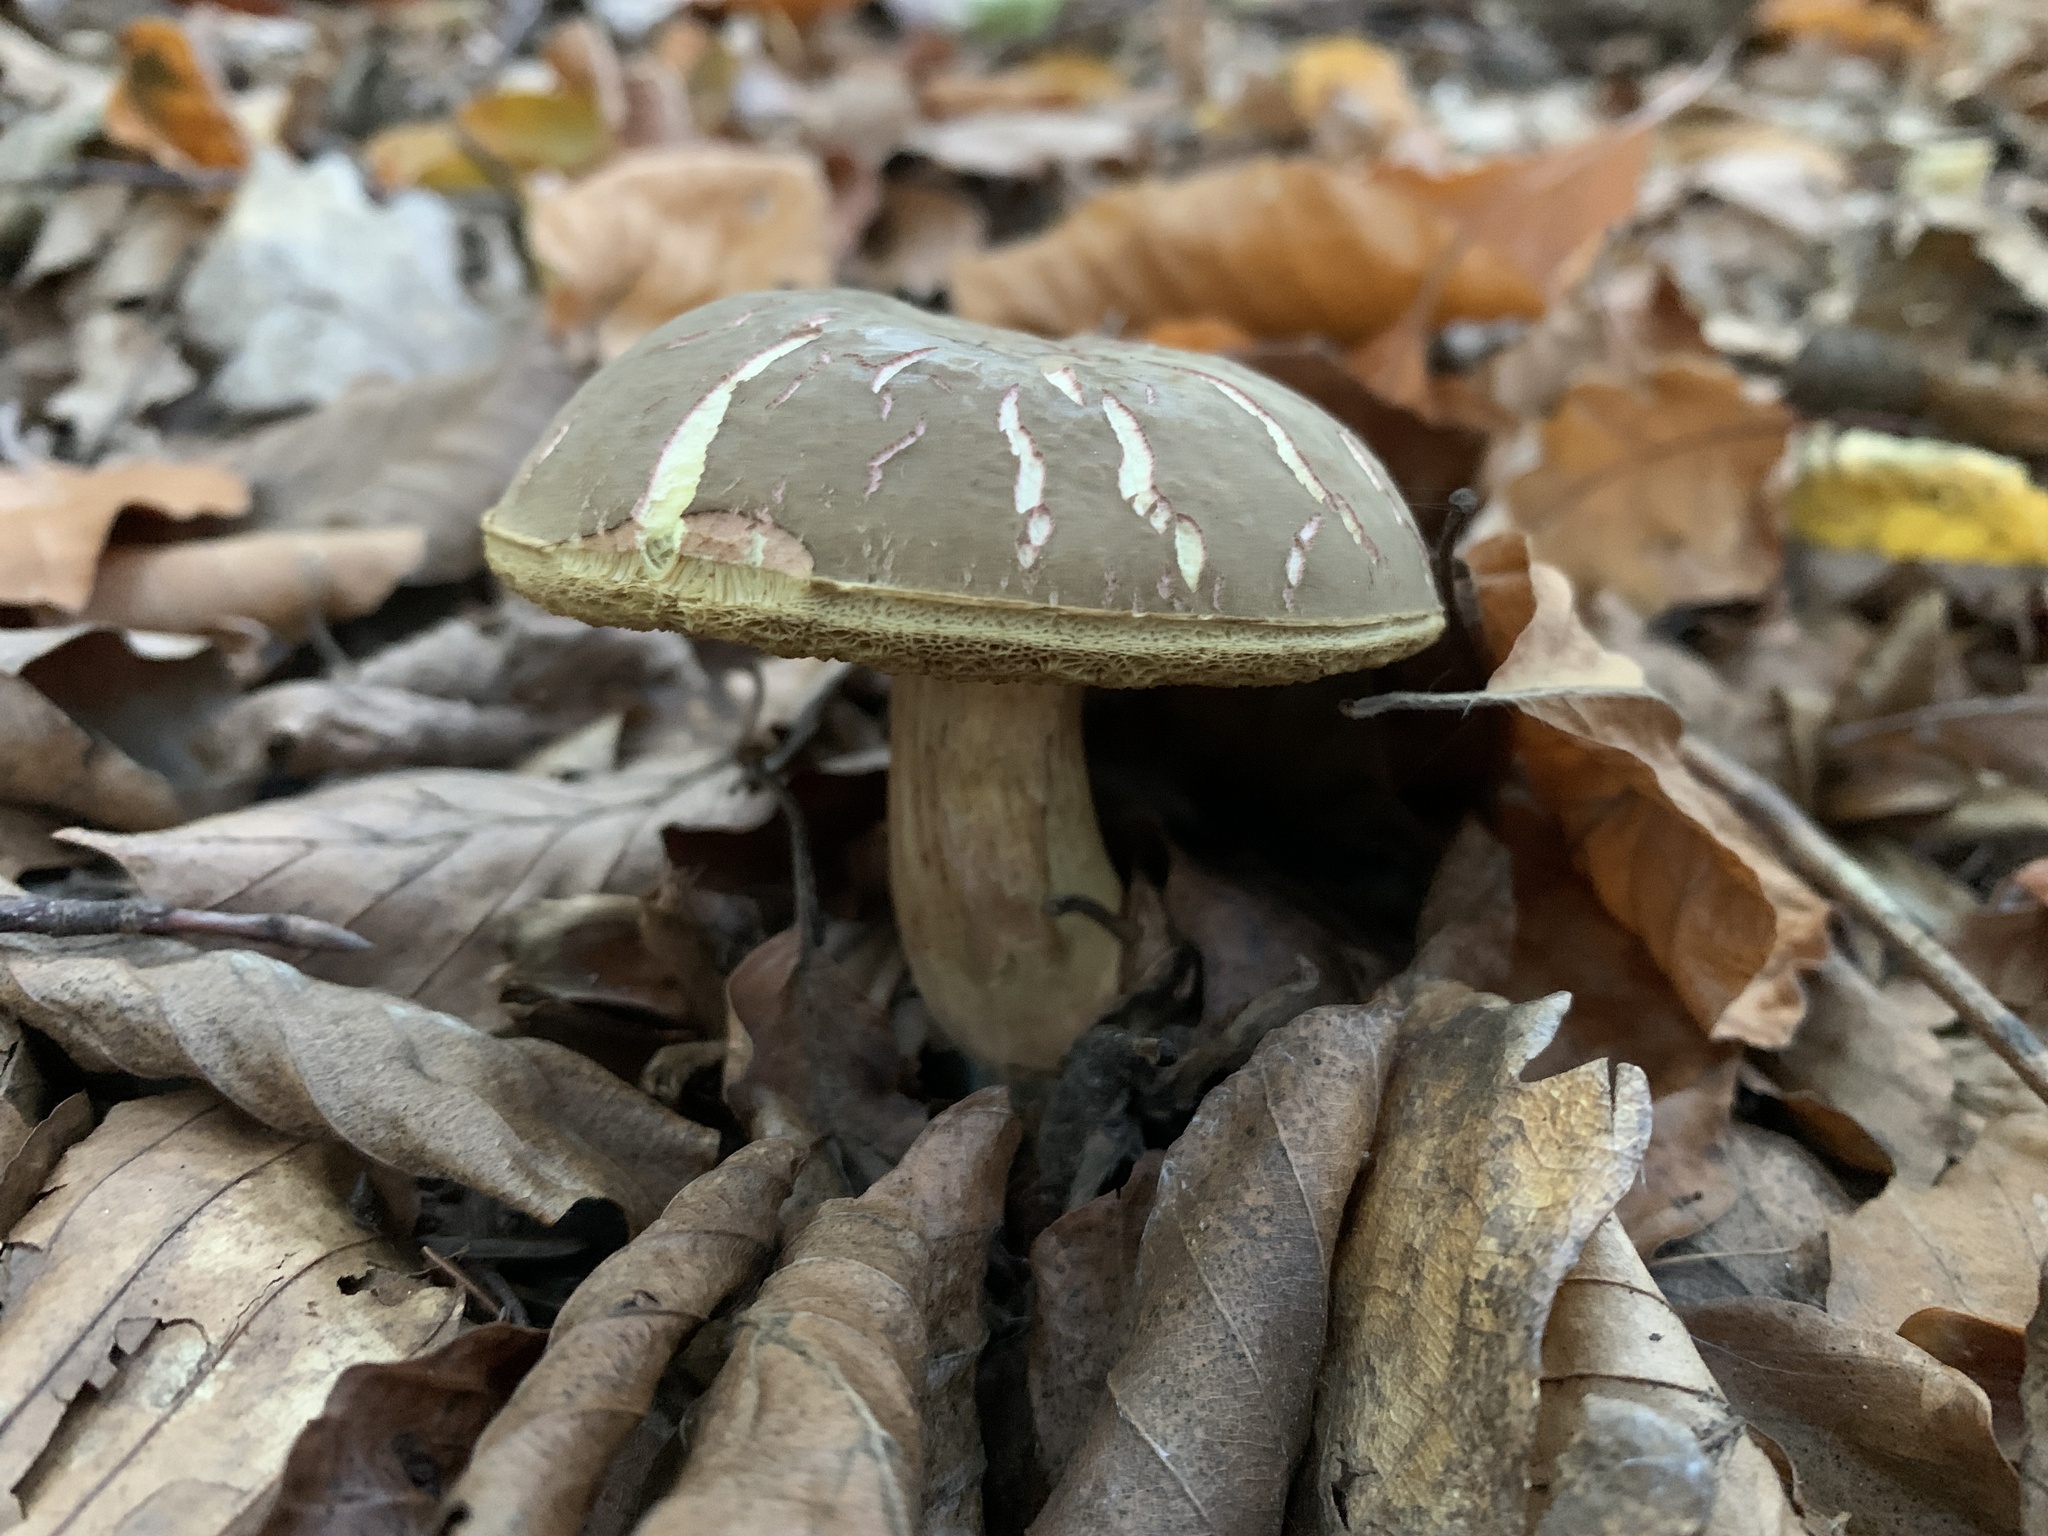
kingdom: Fungi
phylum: Basidiomycota
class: Agaricomycetes
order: Boletales
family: Boletaceae
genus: Xerocomellus
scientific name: Xerocomellus chrysenteron
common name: Red-cracking bolete
